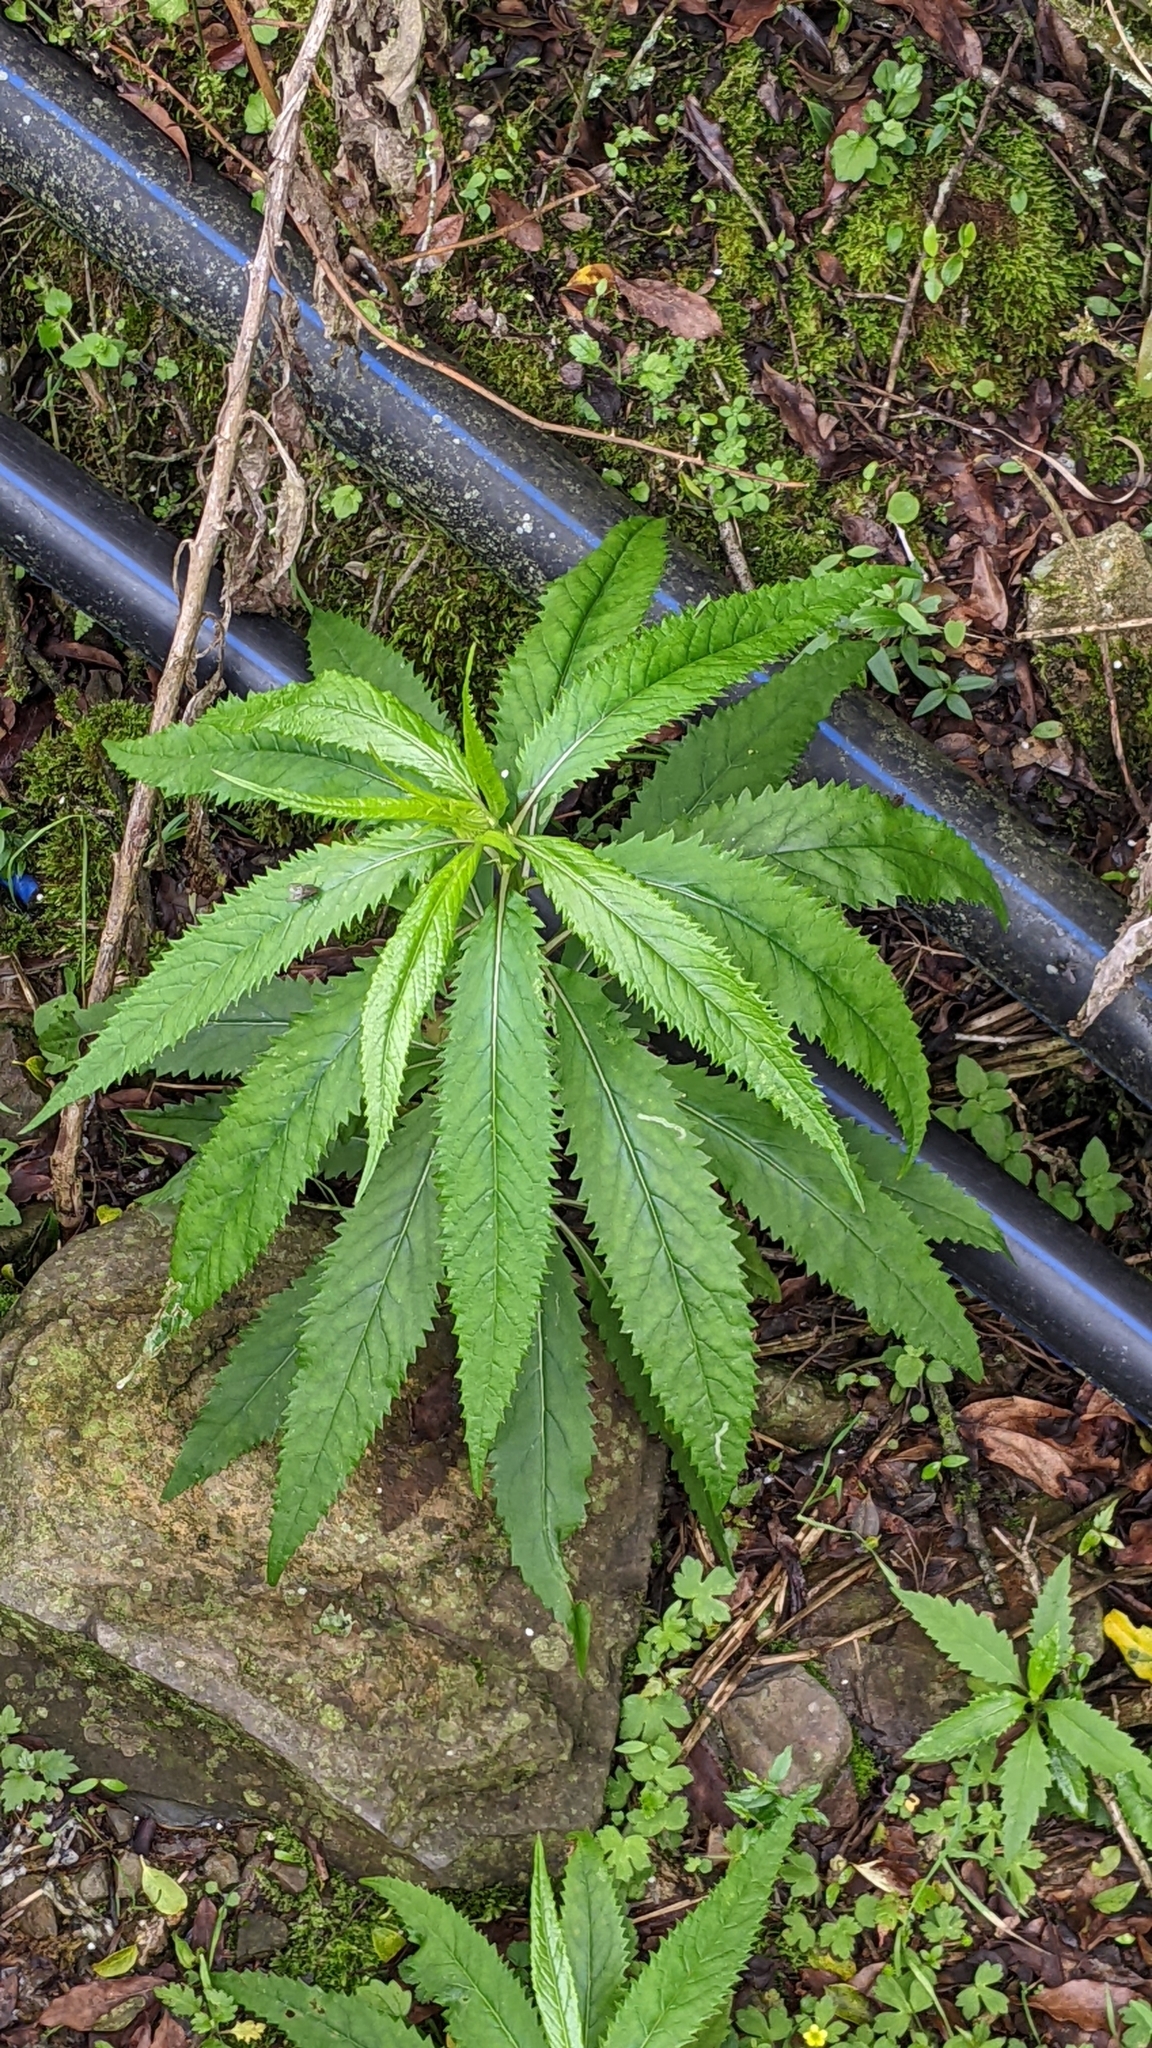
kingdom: Plantae
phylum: Tracheophyta
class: Magnoliopsida
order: Asterales
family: Asteraceae
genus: Senecio
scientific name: Senecio nemorensis
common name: Alpine ragwort
